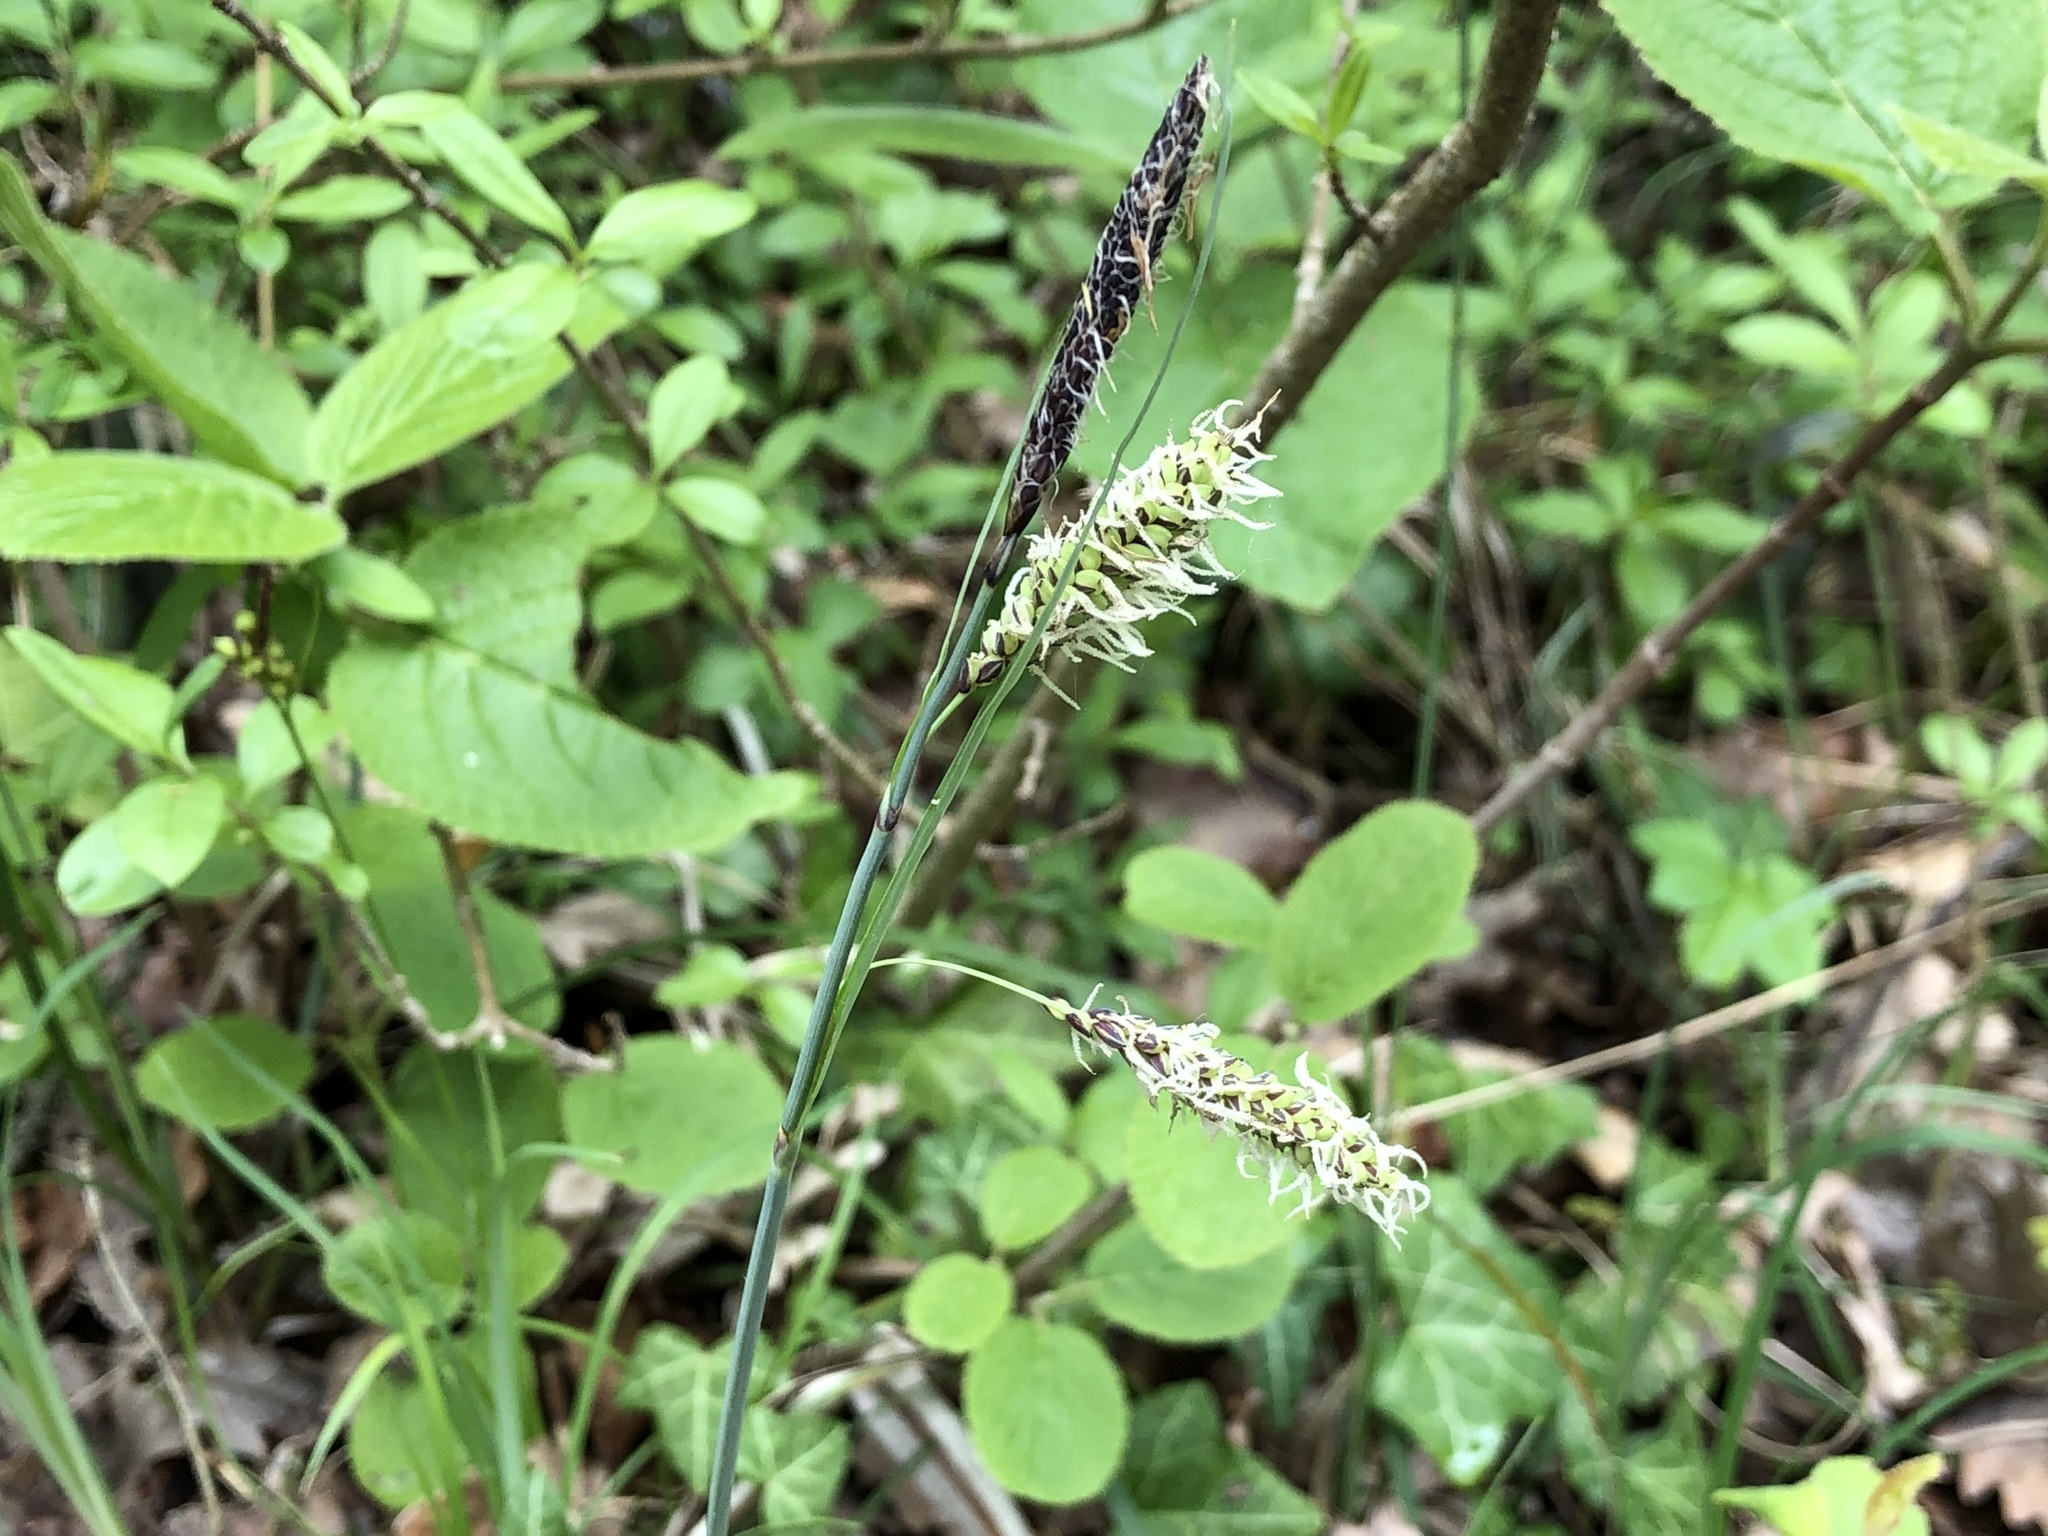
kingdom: Plantae
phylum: Tracheophyta
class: Liliopsida
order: Poales
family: Cyperaceae
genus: Carex
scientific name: Carex flacca
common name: Glaucous sedge
